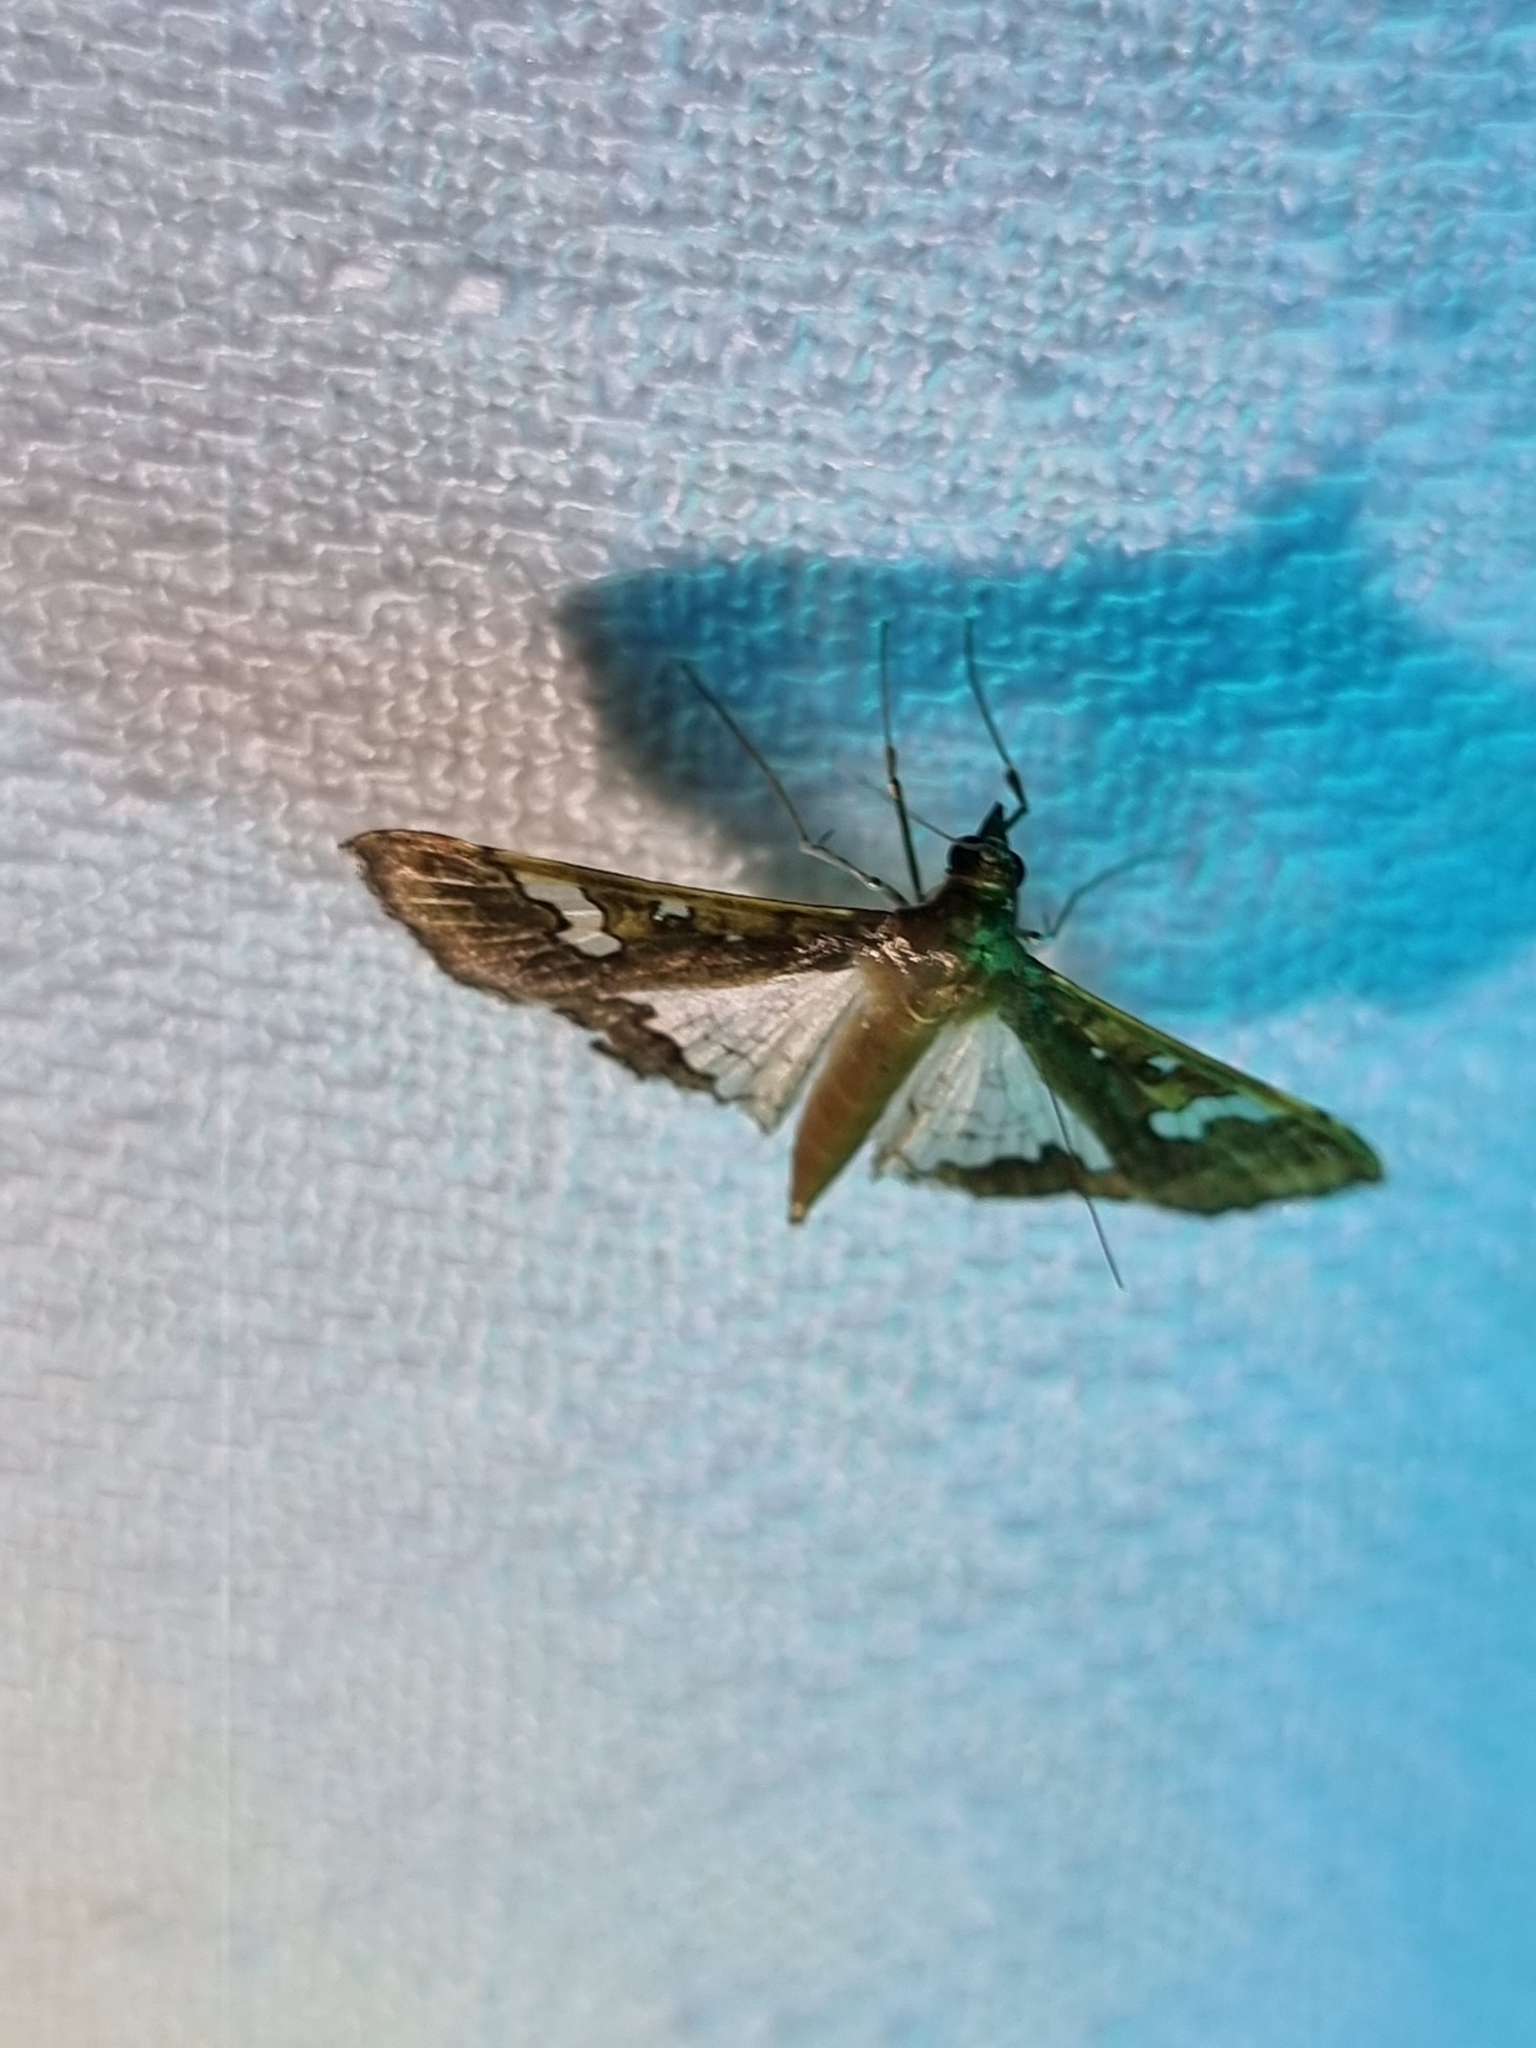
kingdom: Animalia
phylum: Arthropoda
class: Insecta
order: Lepidoptera
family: Crambidae
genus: Maruca
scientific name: Maruca vitrata
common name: Maruca pod borer
